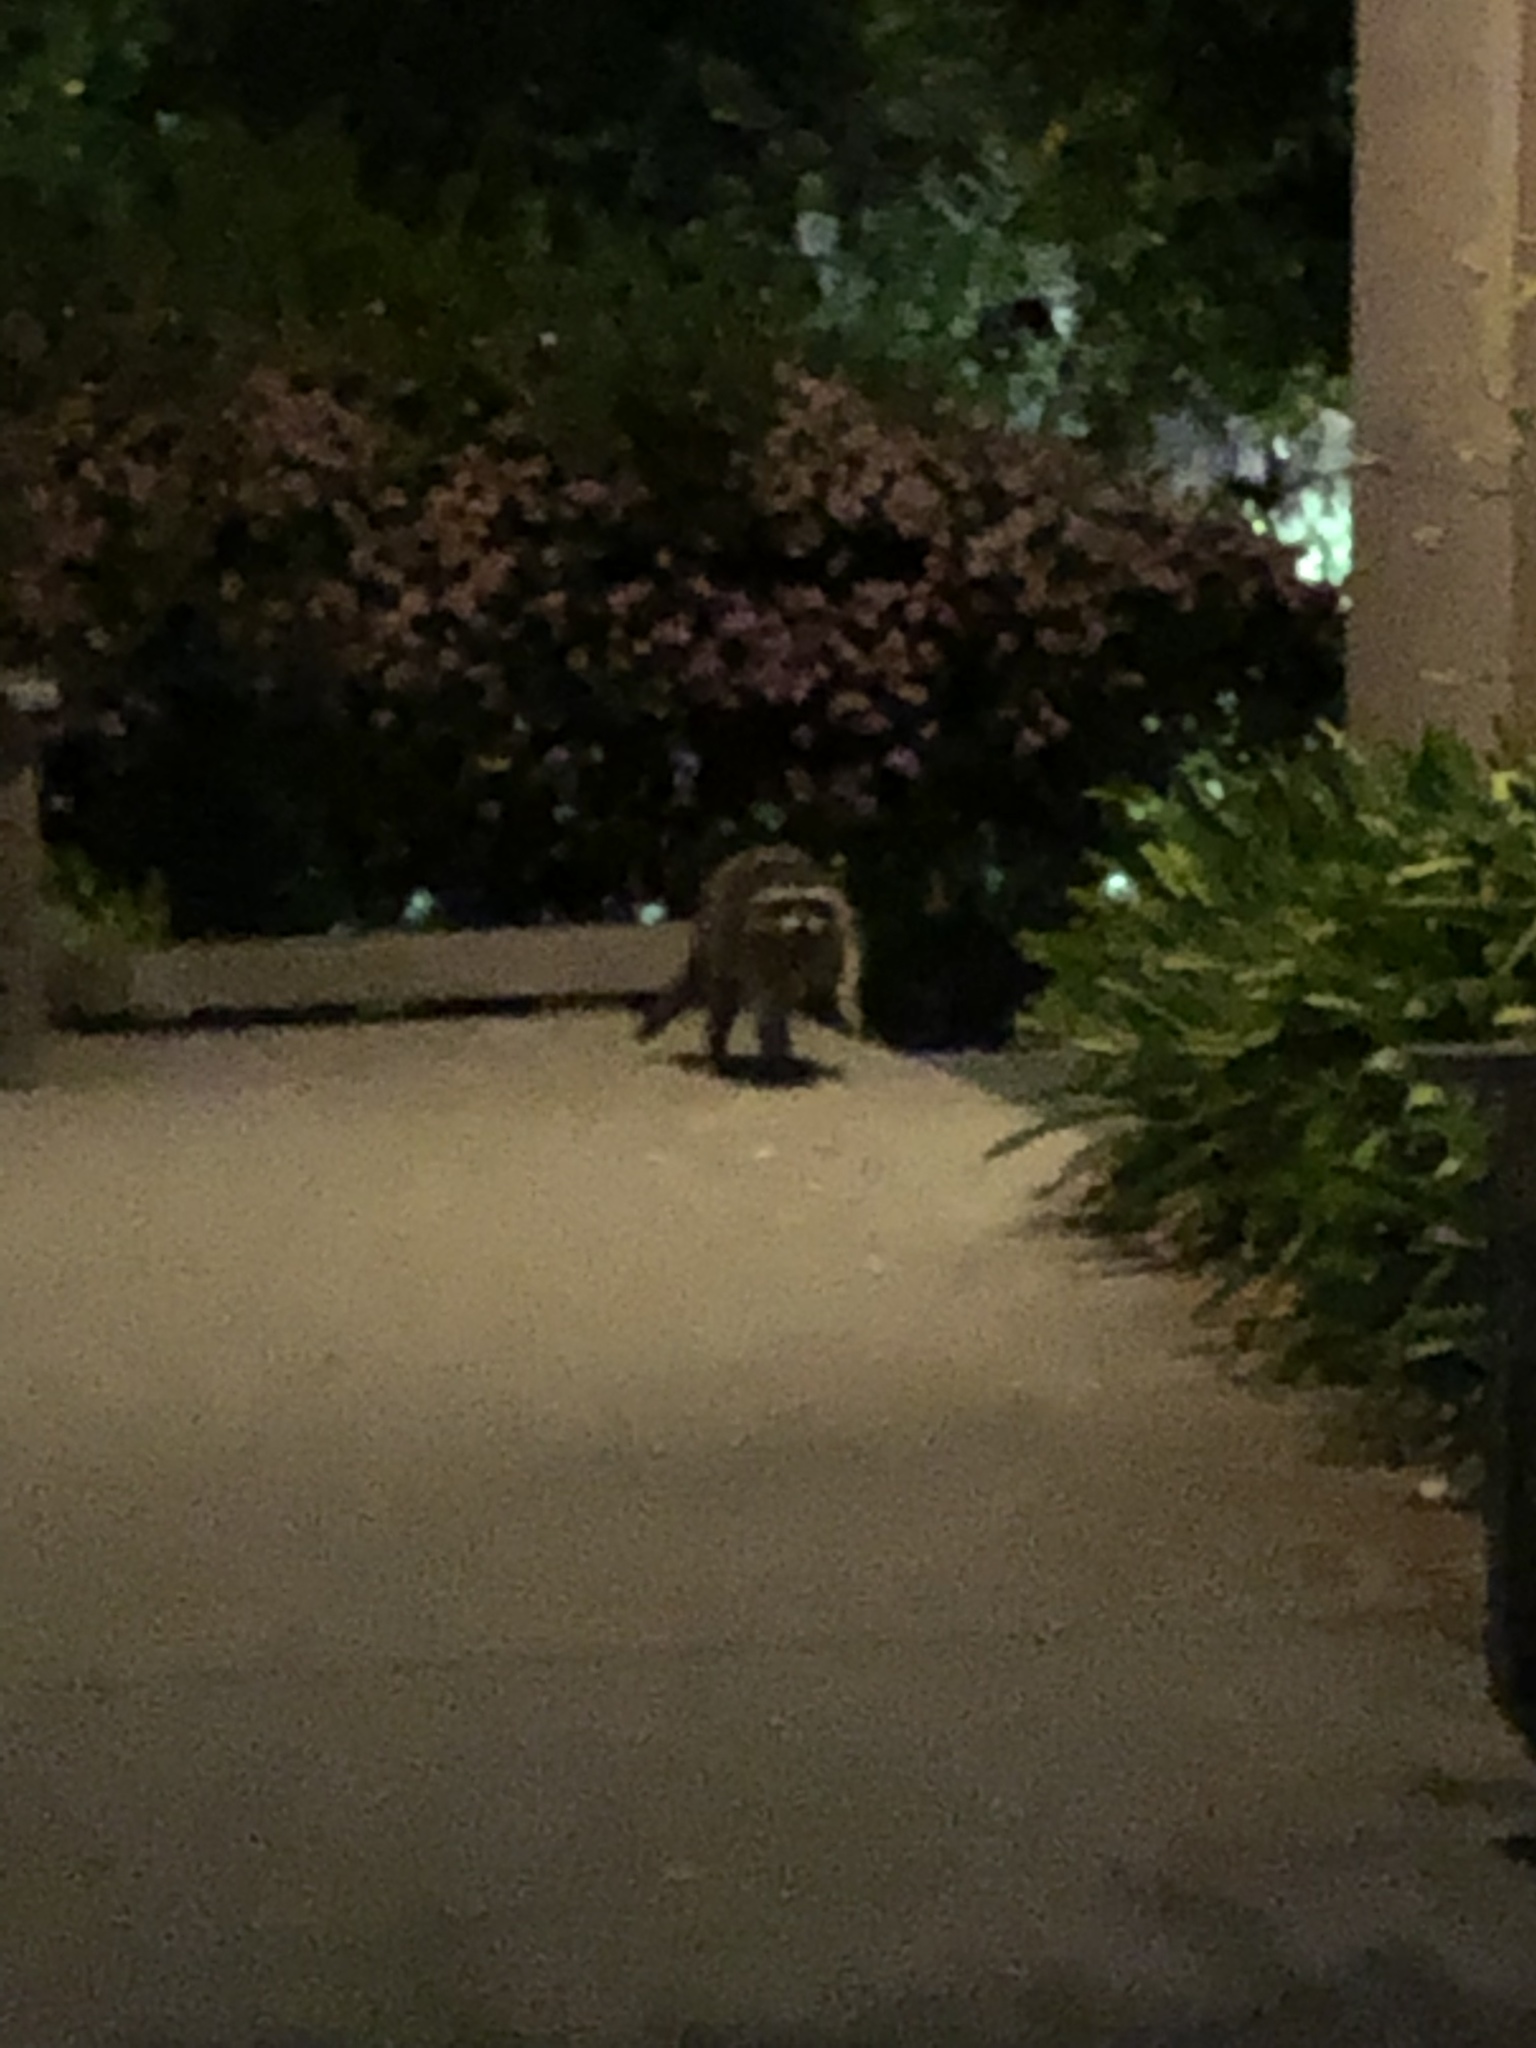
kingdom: Animalia
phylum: Chordata
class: Mammalia
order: Carnivora
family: Procyonidae
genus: Procyon
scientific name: Procyon lotor
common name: Raccoon
